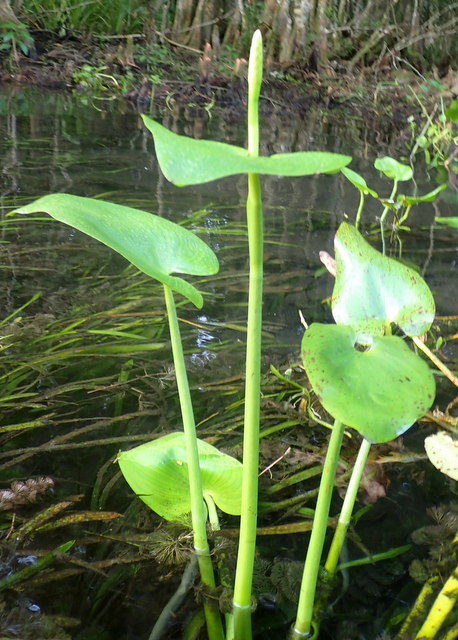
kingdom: Plantae
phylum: Tracheophyta
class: Liliopsida
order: Commelinales
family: Pontederiaceae
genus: Pontederia
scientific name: Pontederia cordata
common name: Pickerelweed
